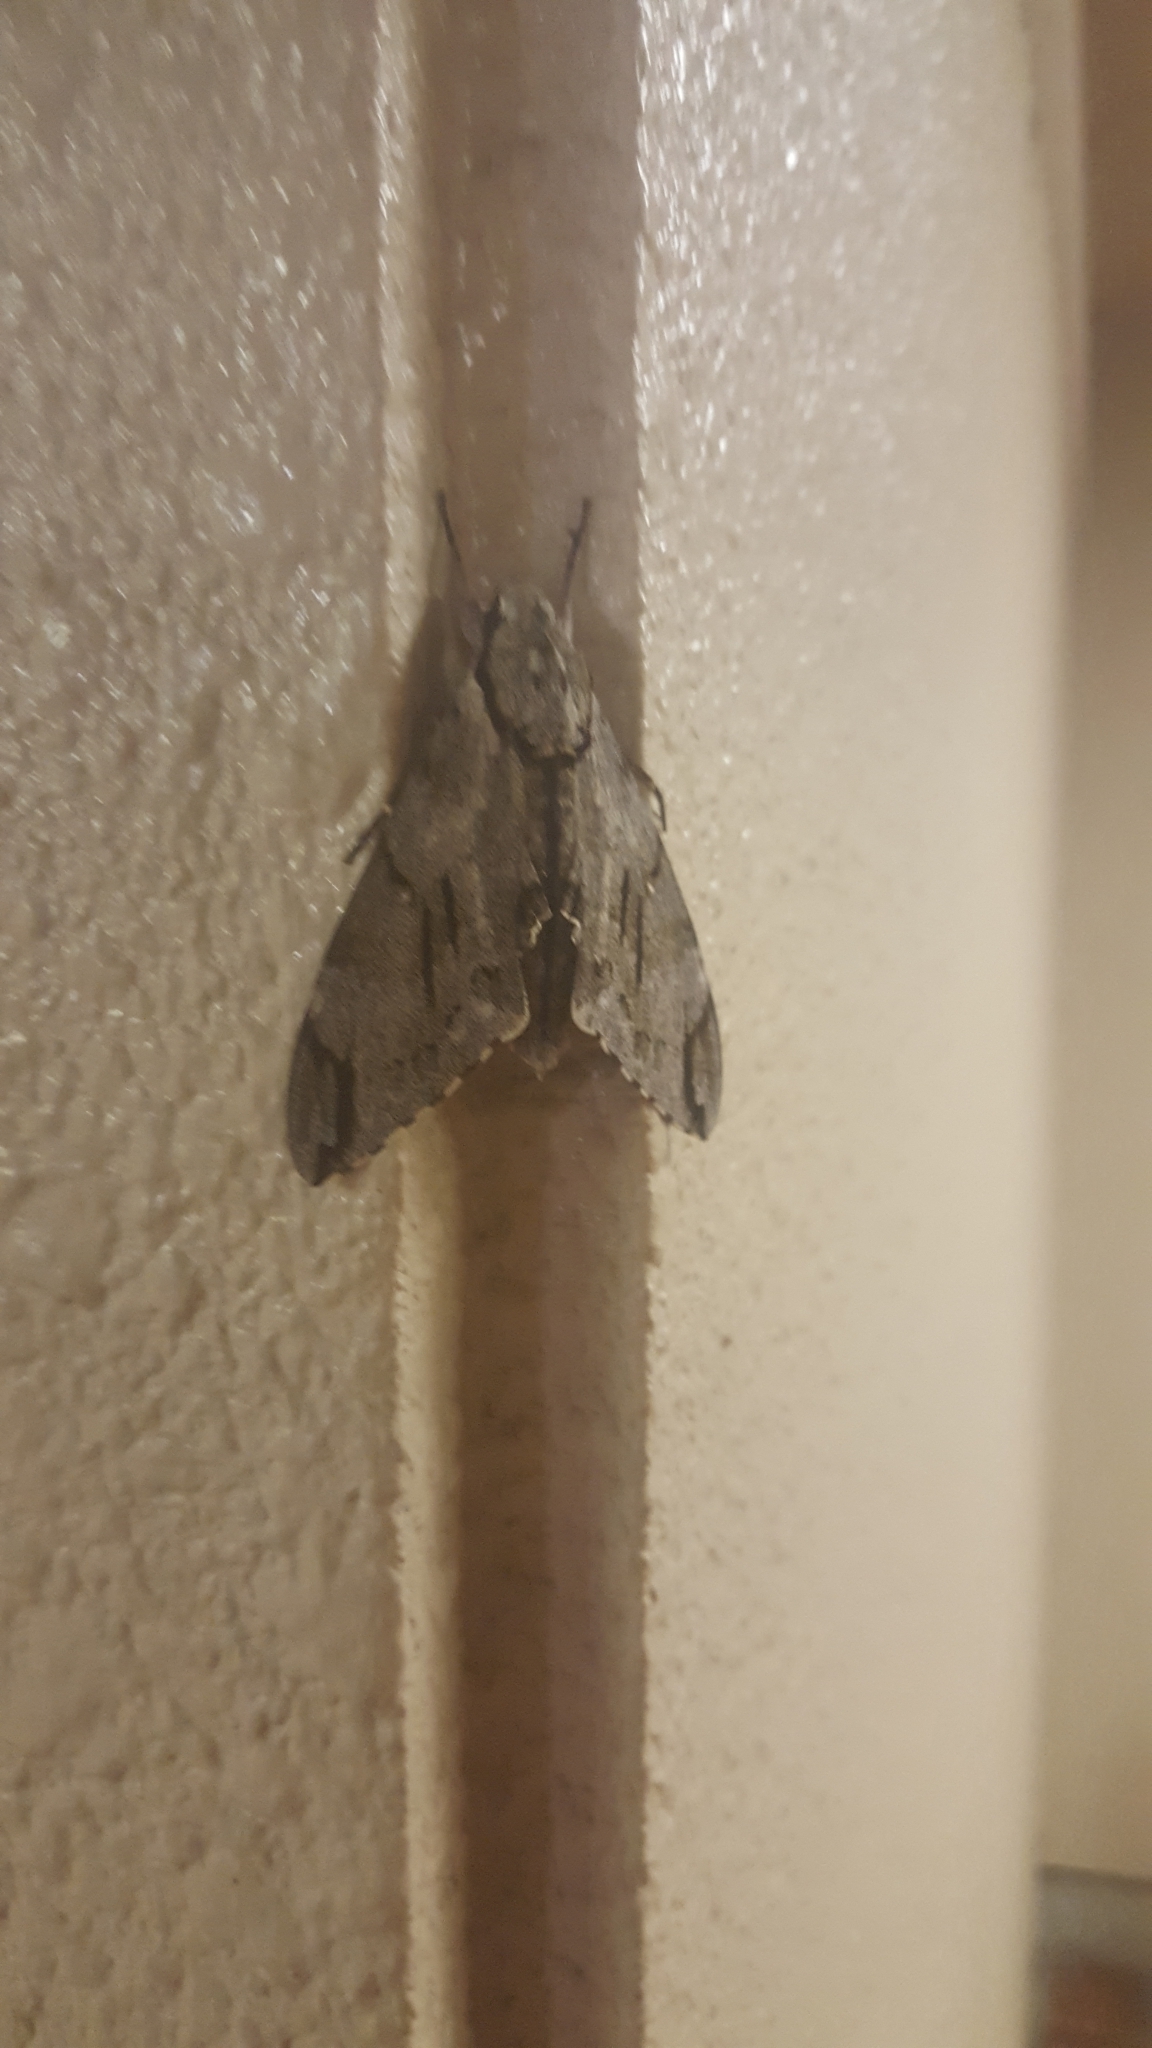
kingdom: Animalia
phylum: Arthropoda
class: Insecta
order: Lepidoptera
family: Sphingidae
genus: Psilogramma
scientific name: Psilogramma increta
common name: Gray hawk moth
